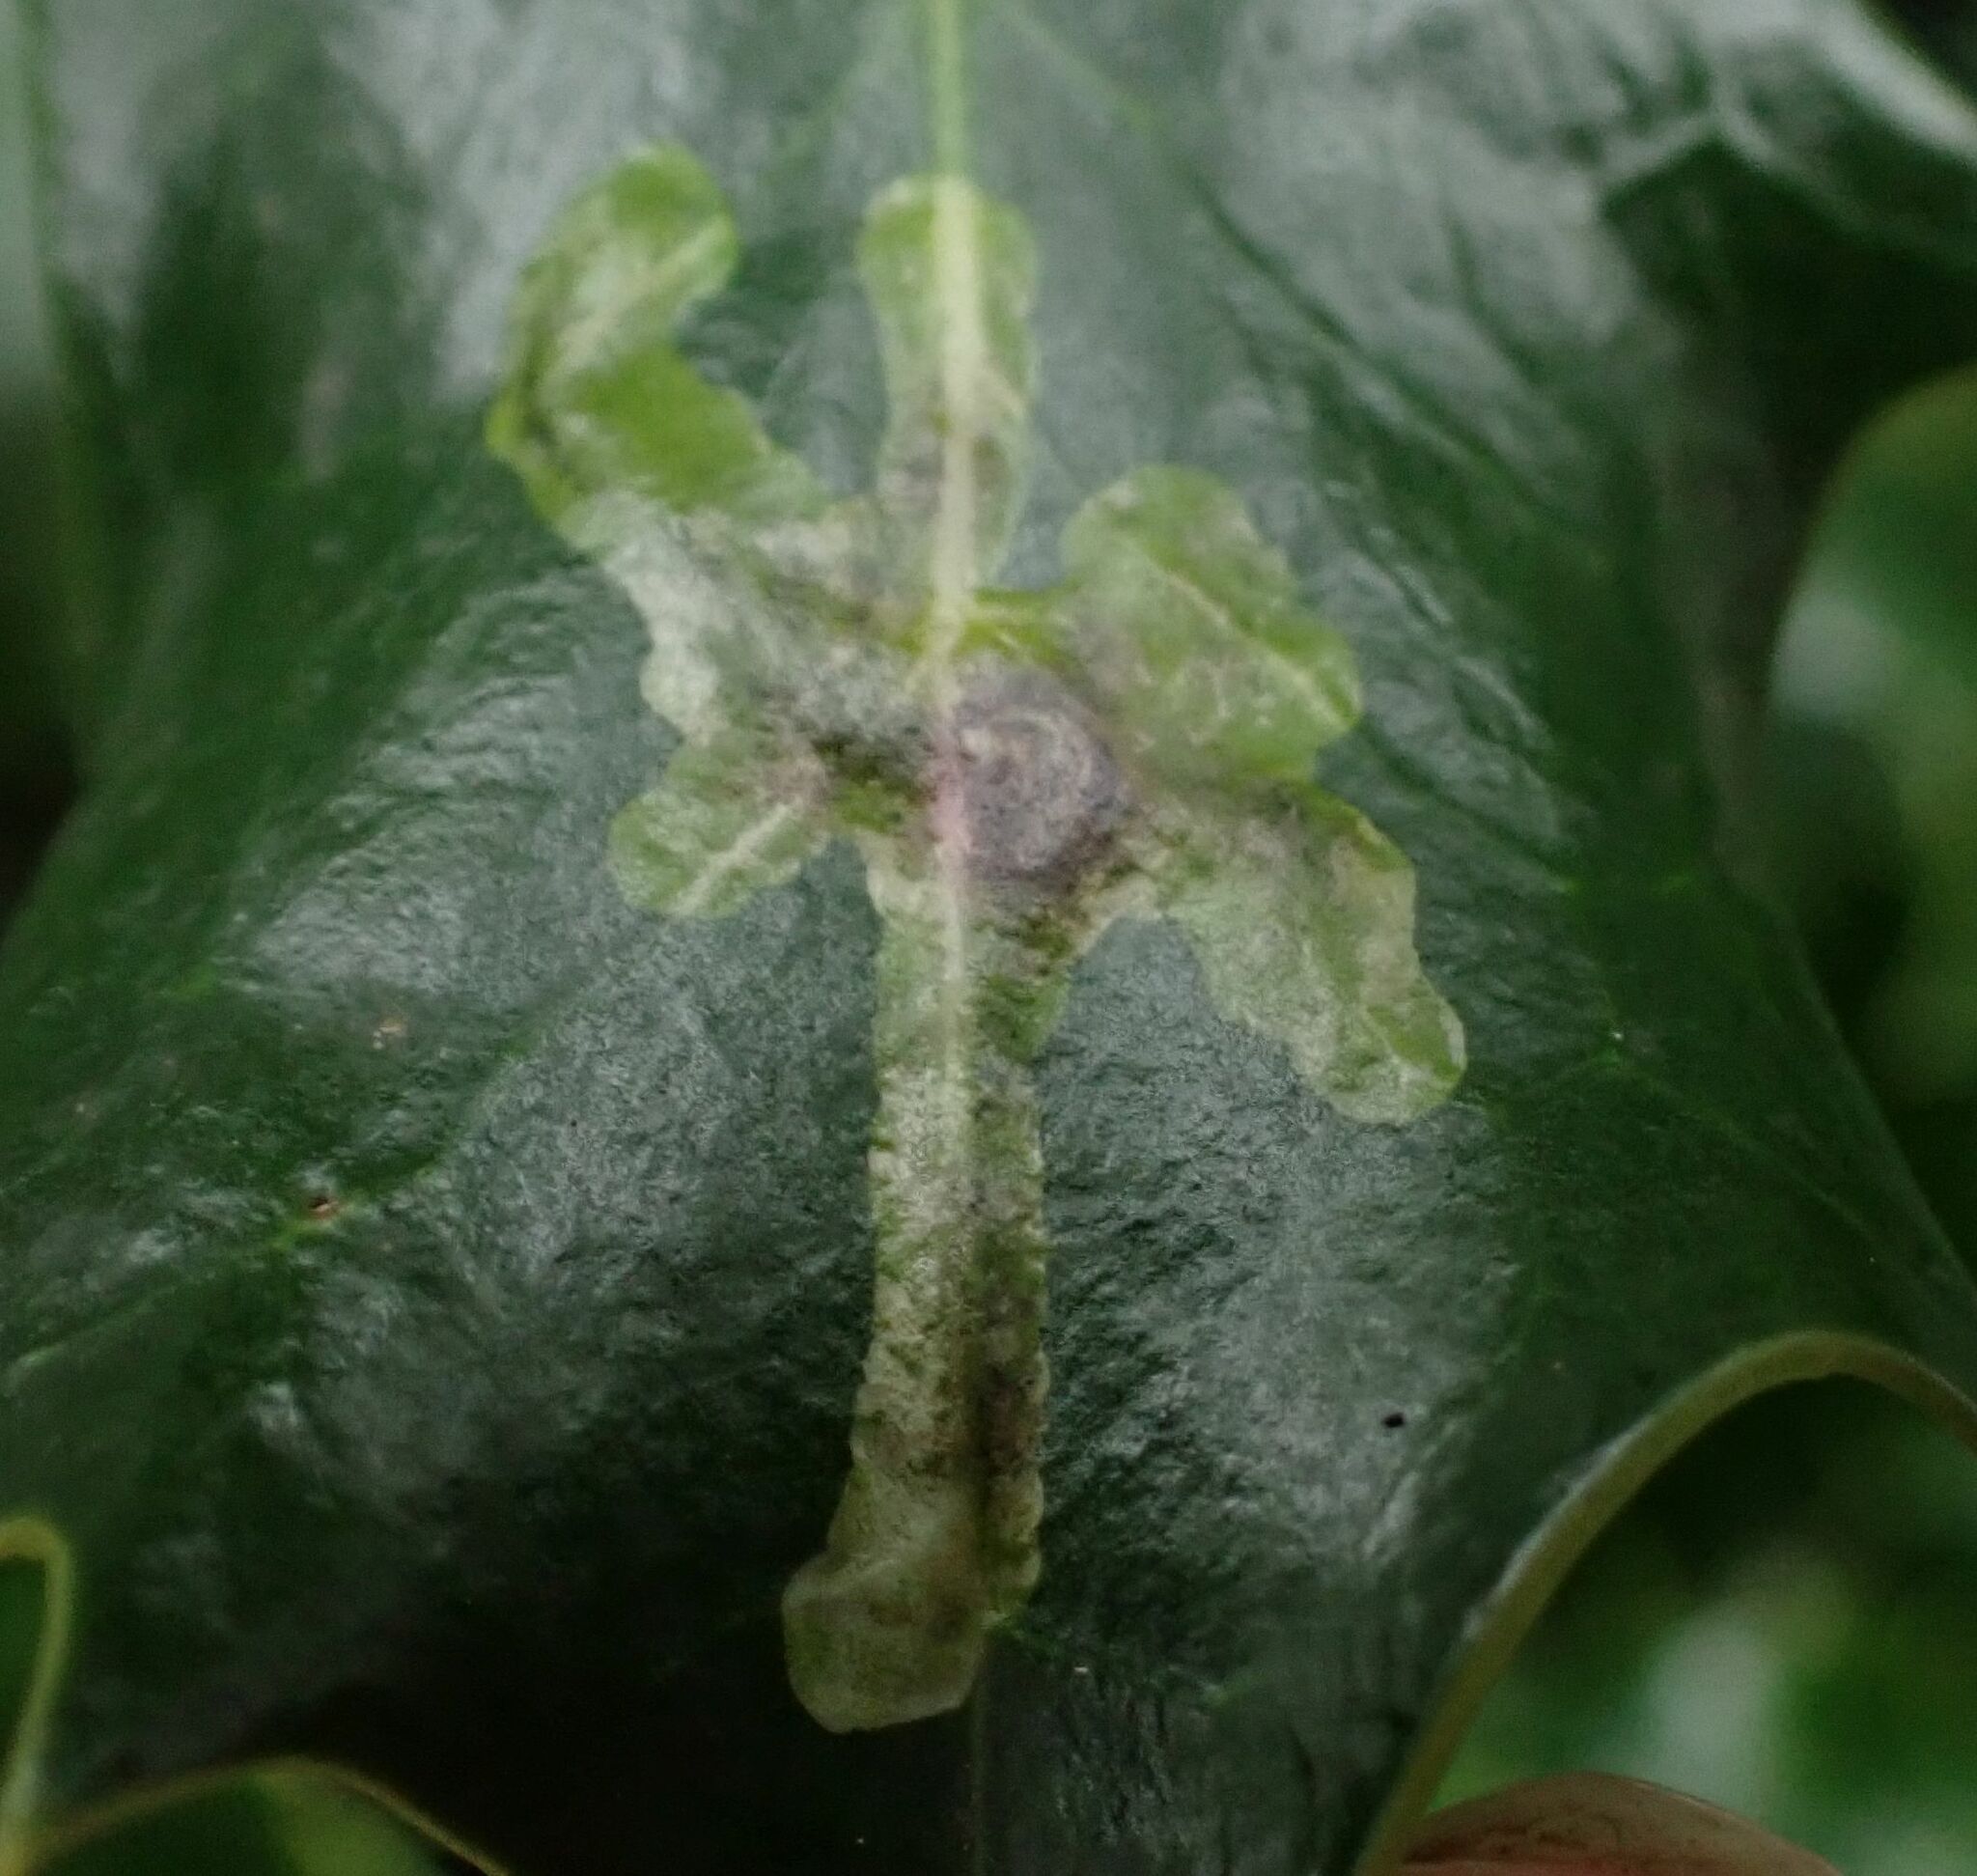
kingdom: Animalia
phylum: Arthropoda
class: Insecta
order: Diptera
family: Agromyzidae
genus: Phytomyza
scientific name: Phytomyza ilicis
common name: Holly leafminer
